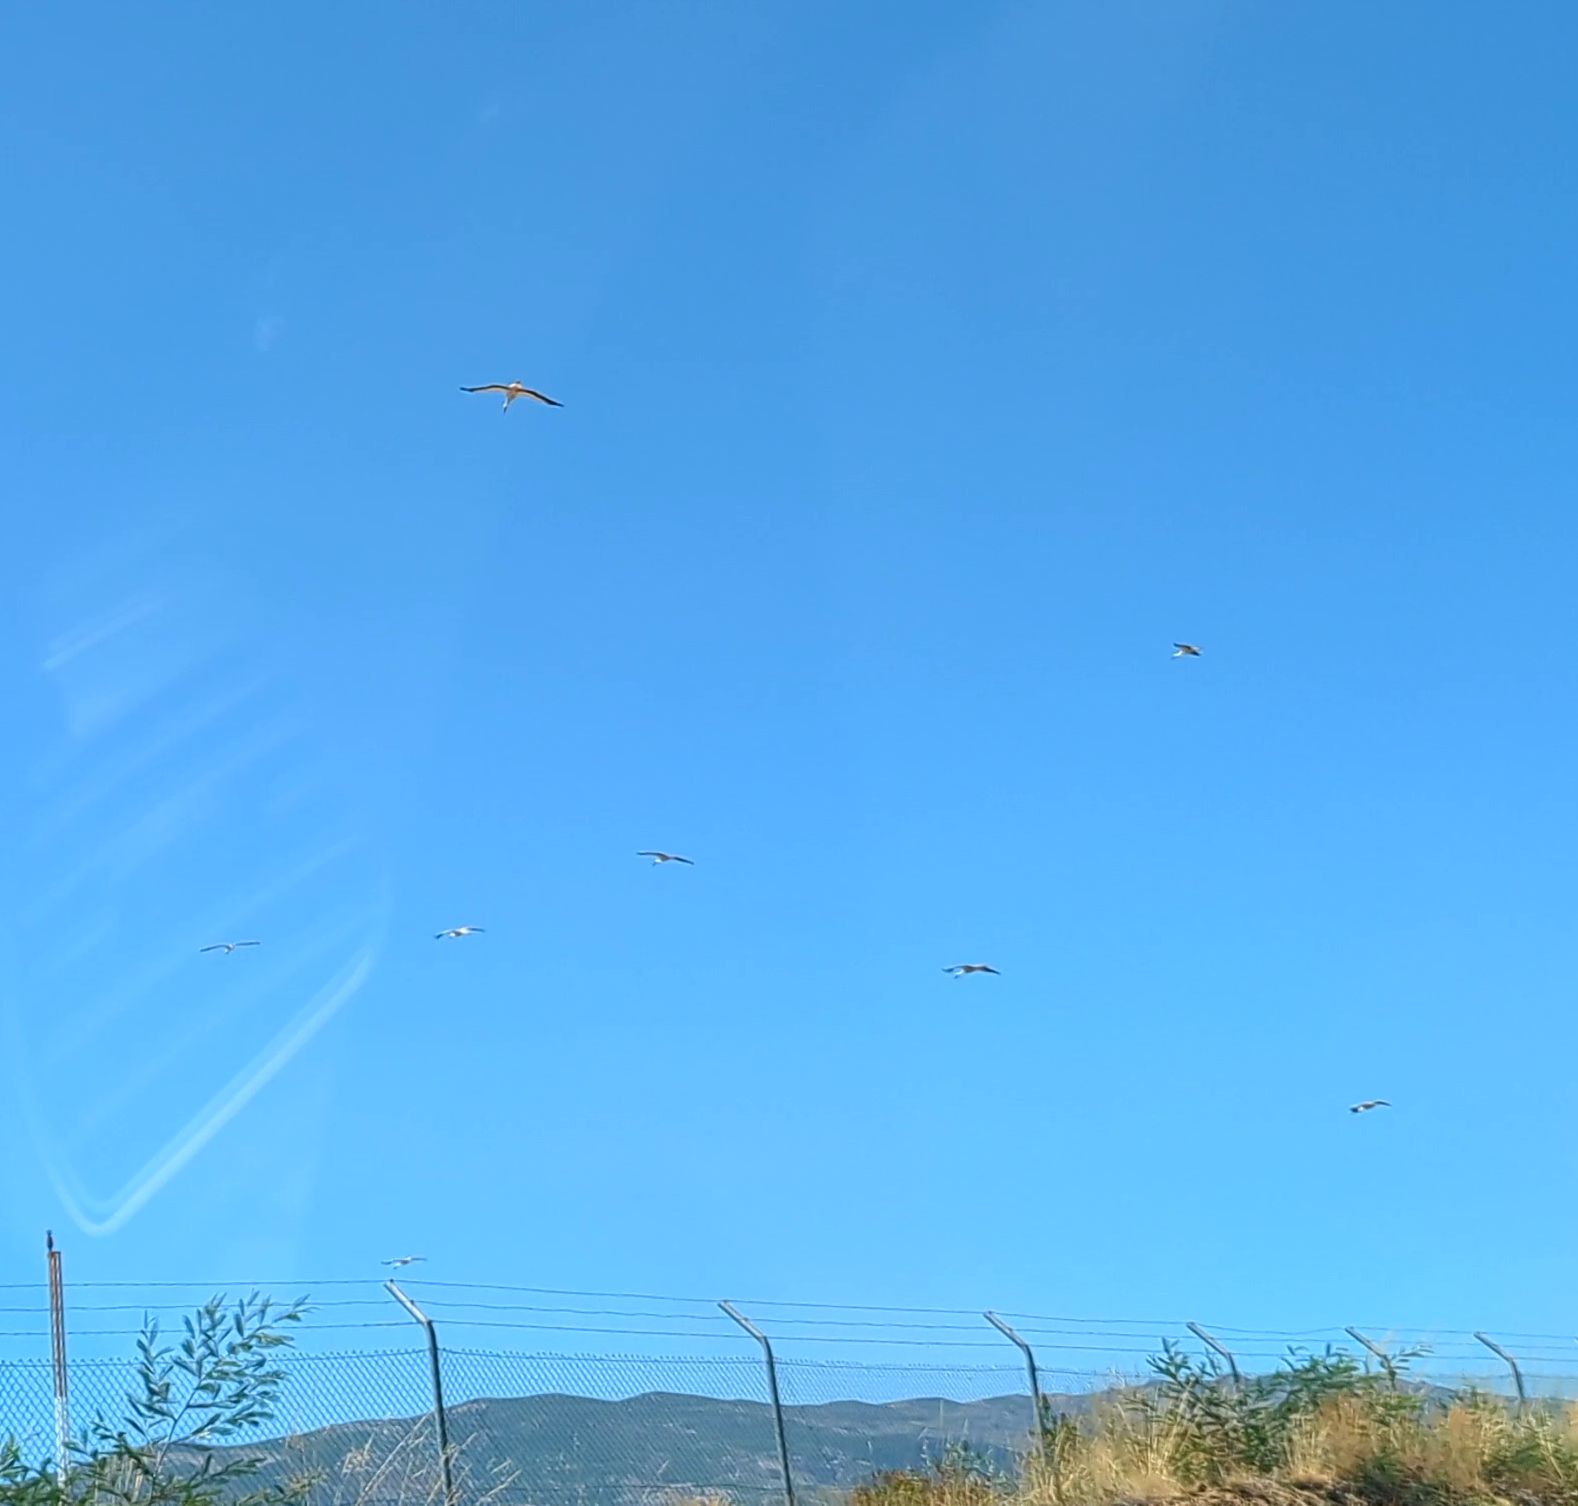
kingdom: Animalia
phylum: Chordata
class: Aves
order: Ciconiiformes
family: Ciconiidae
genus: Ciconia
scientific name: Ciconia ciconia
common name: White stork
